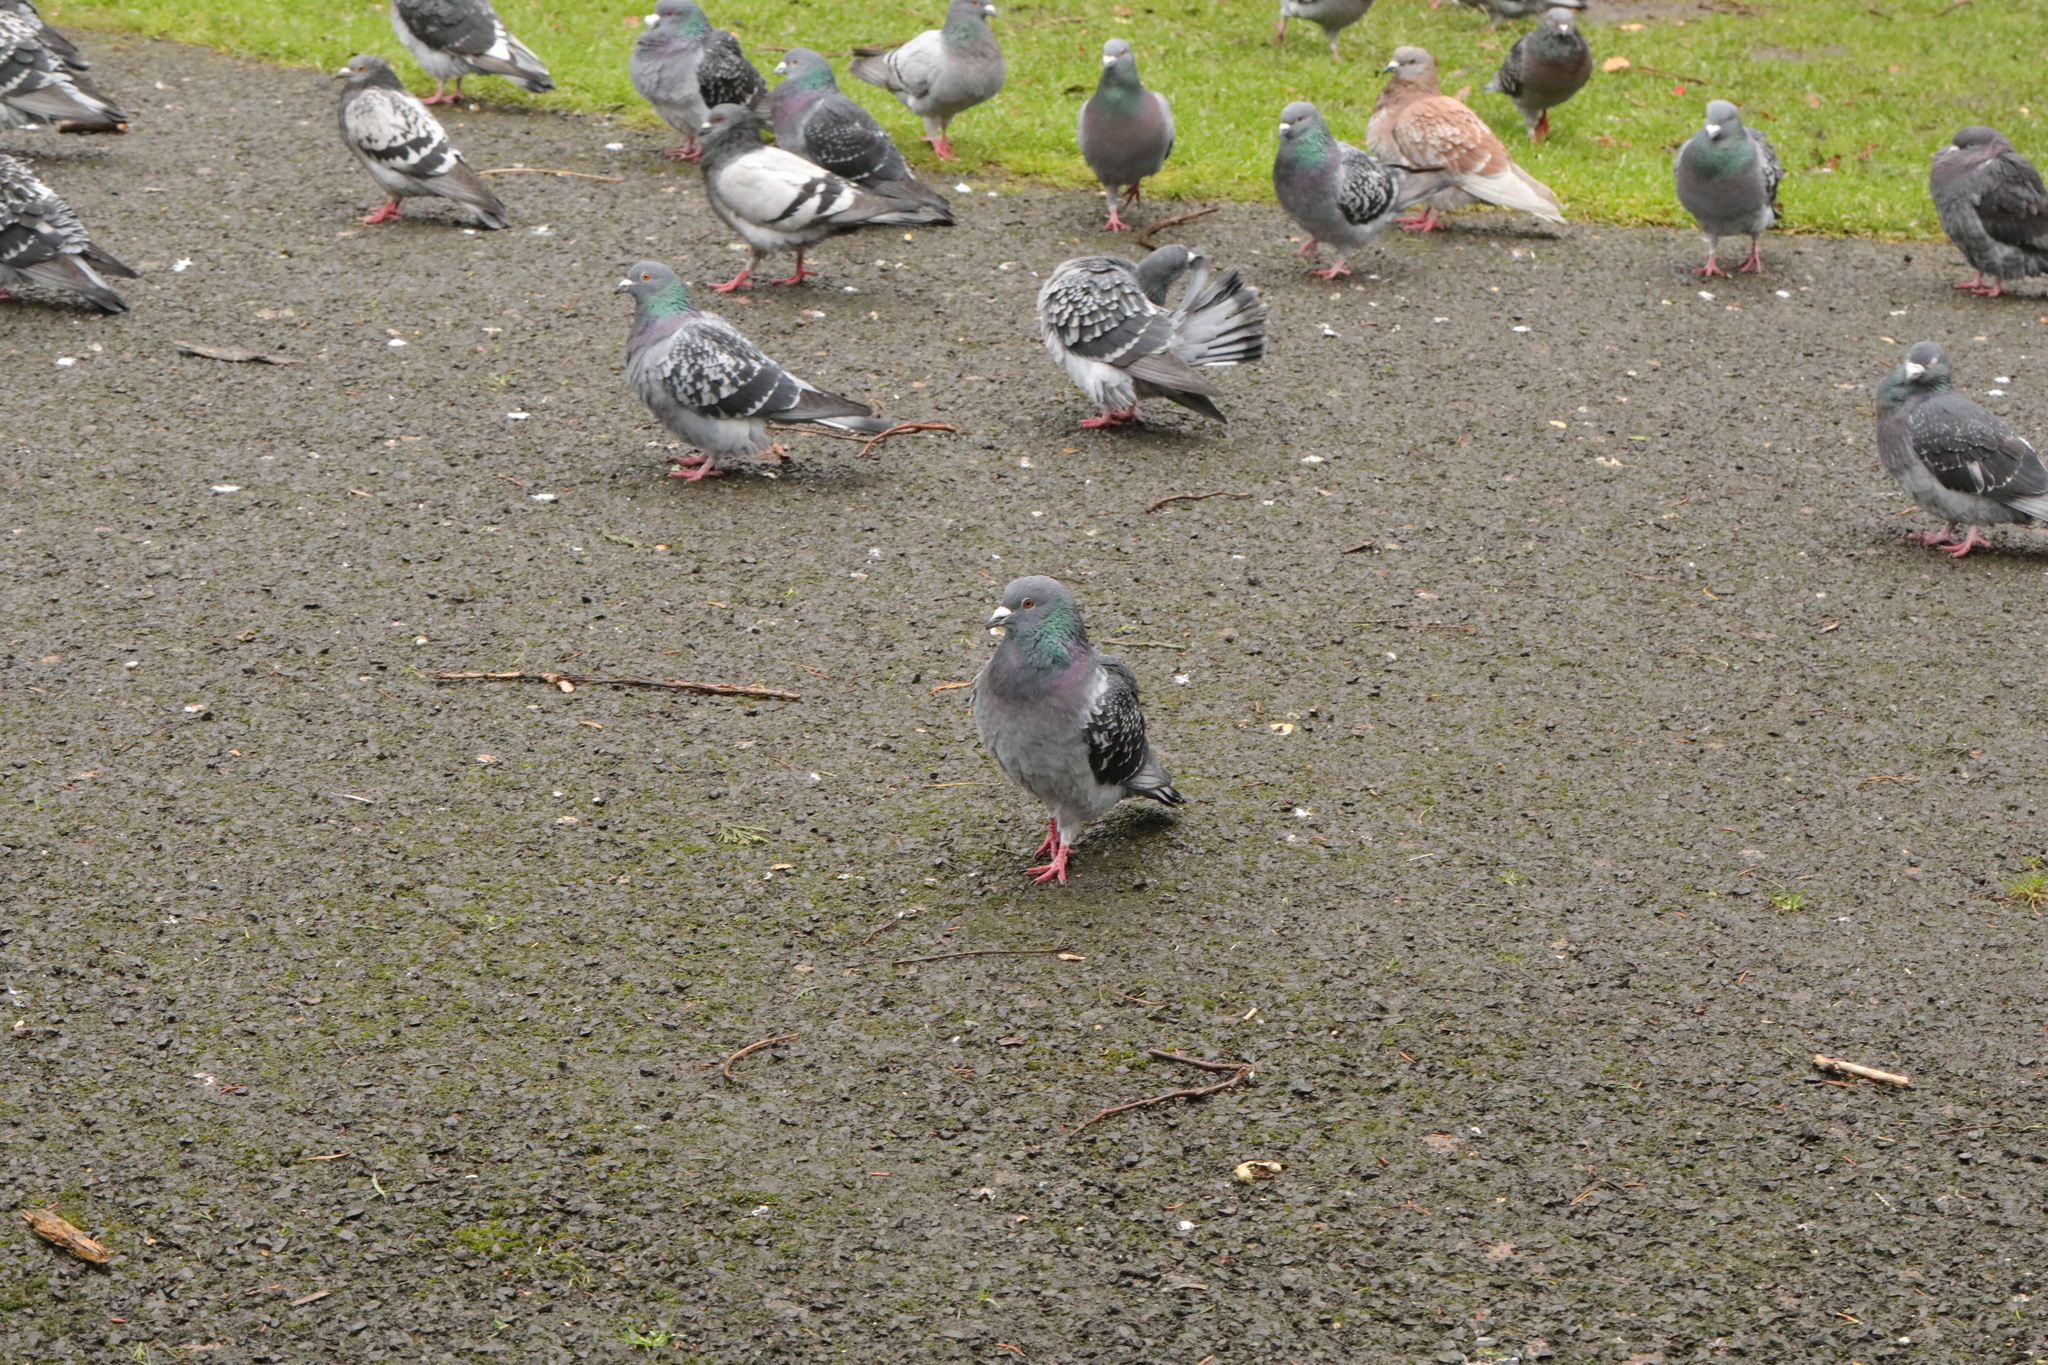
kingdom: Animalia
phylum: Chordata
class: Aves
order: Columbiformes
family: Columbidae
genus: Columba
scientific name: Columba livia
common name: Rock pigeon
